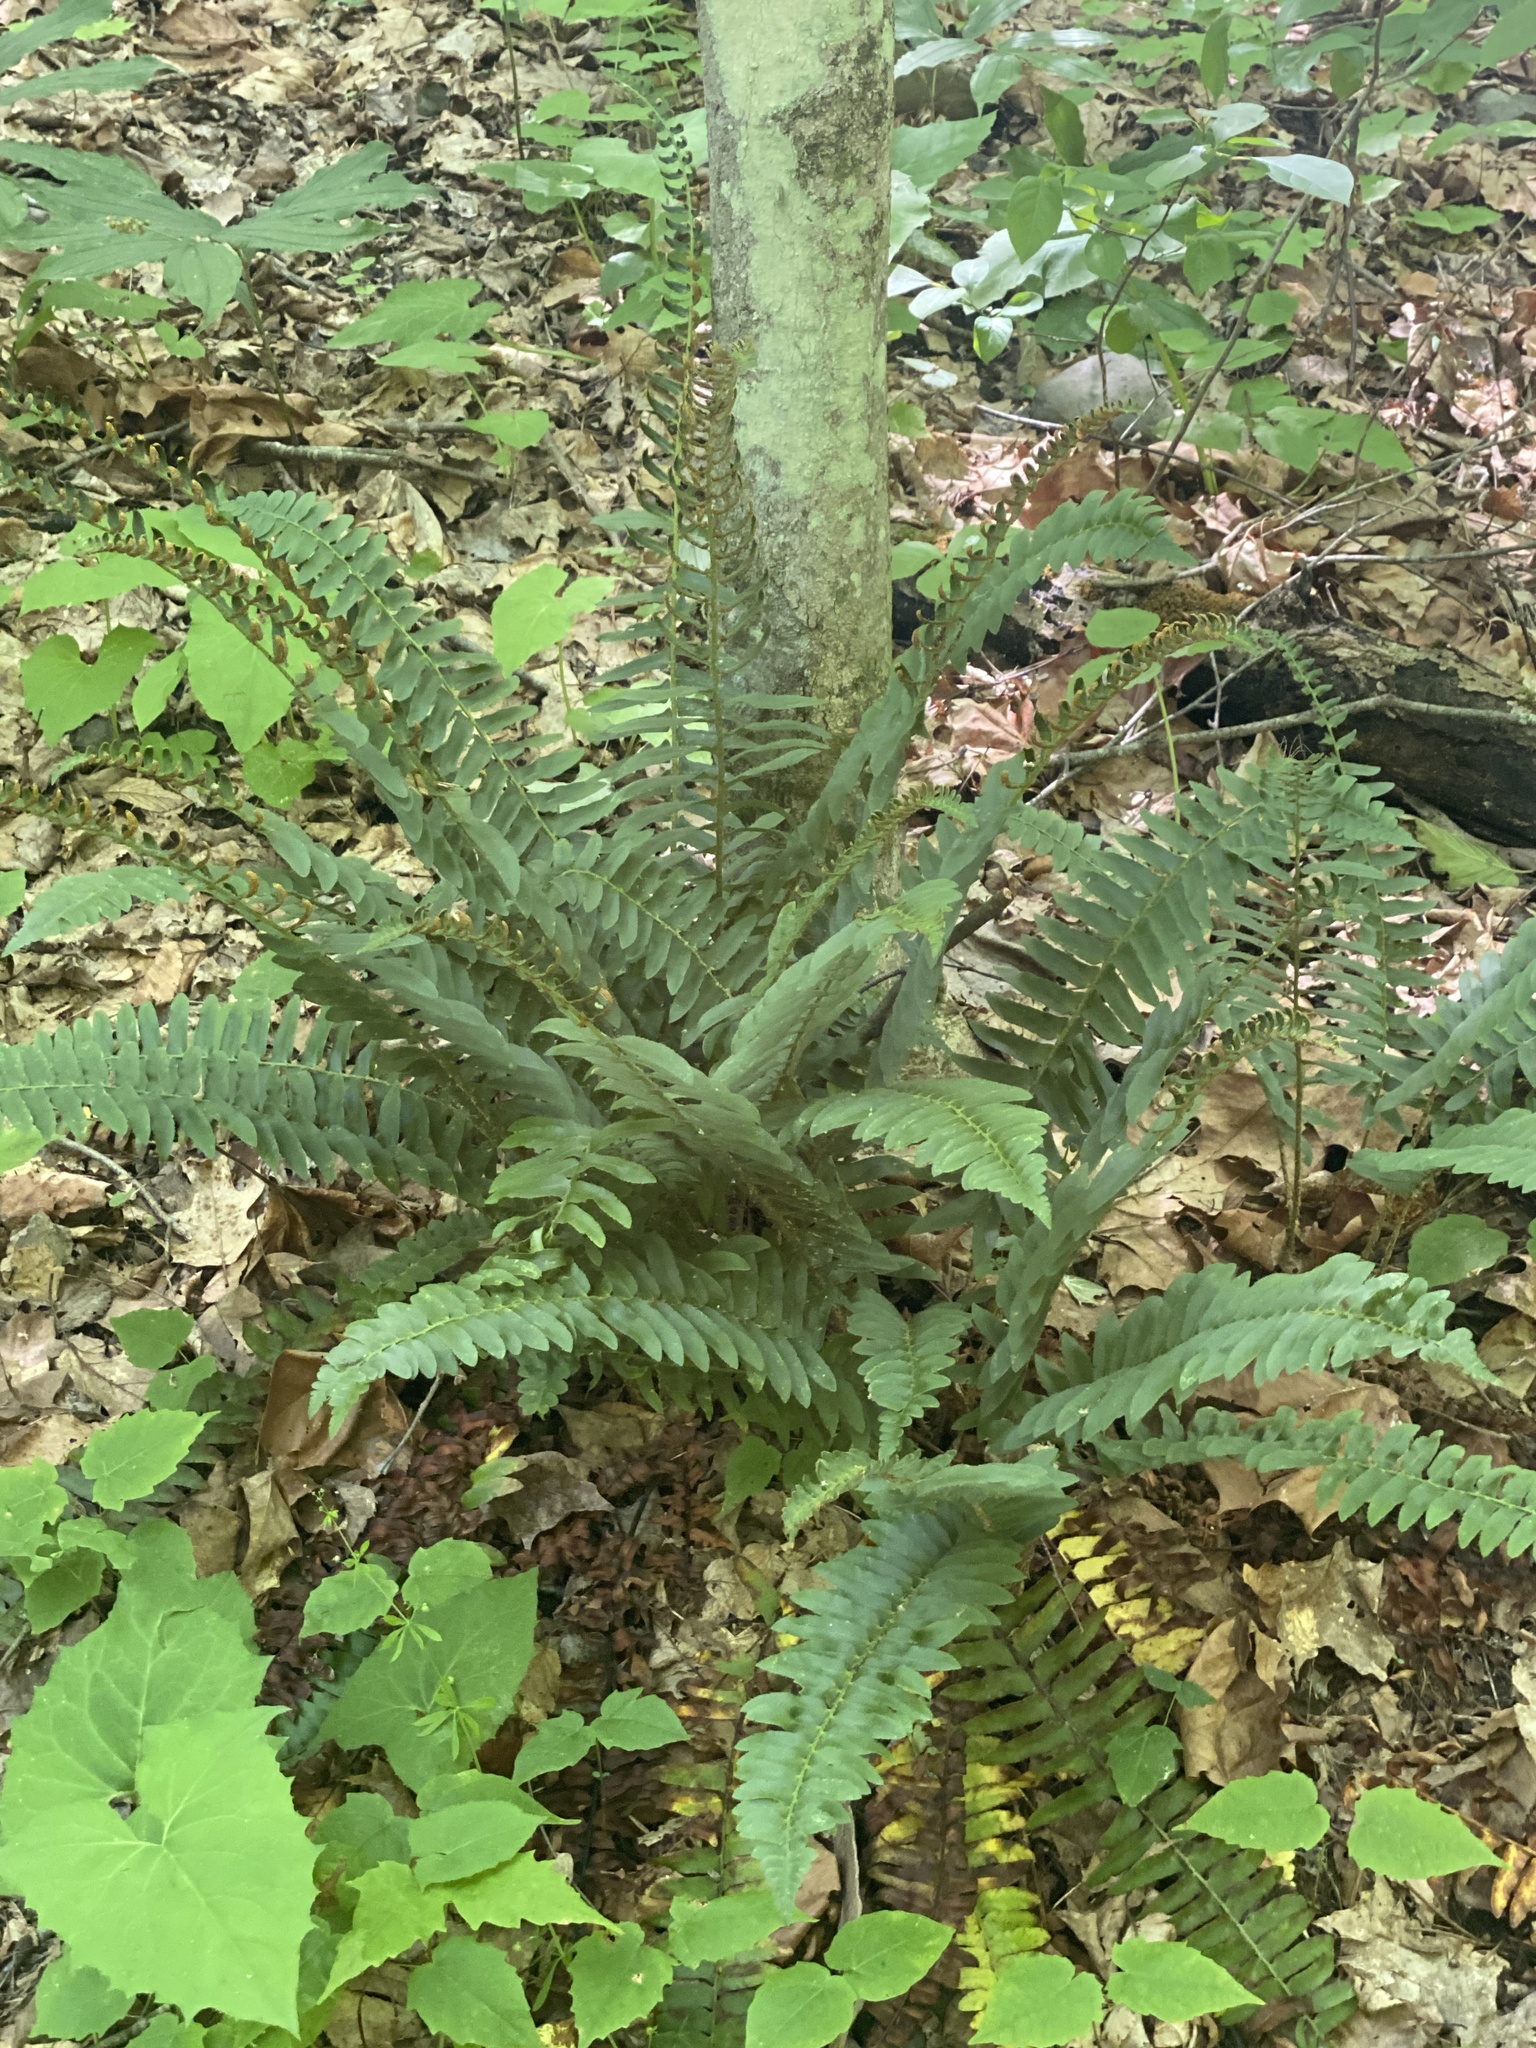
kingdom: Plantae
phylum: Tracheophyta
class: Polypodiopsida
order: Polypodiales
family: Dryopteridaceae
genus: Polystichum
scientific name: Polystichum acrostichoides
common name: Christmas fern
